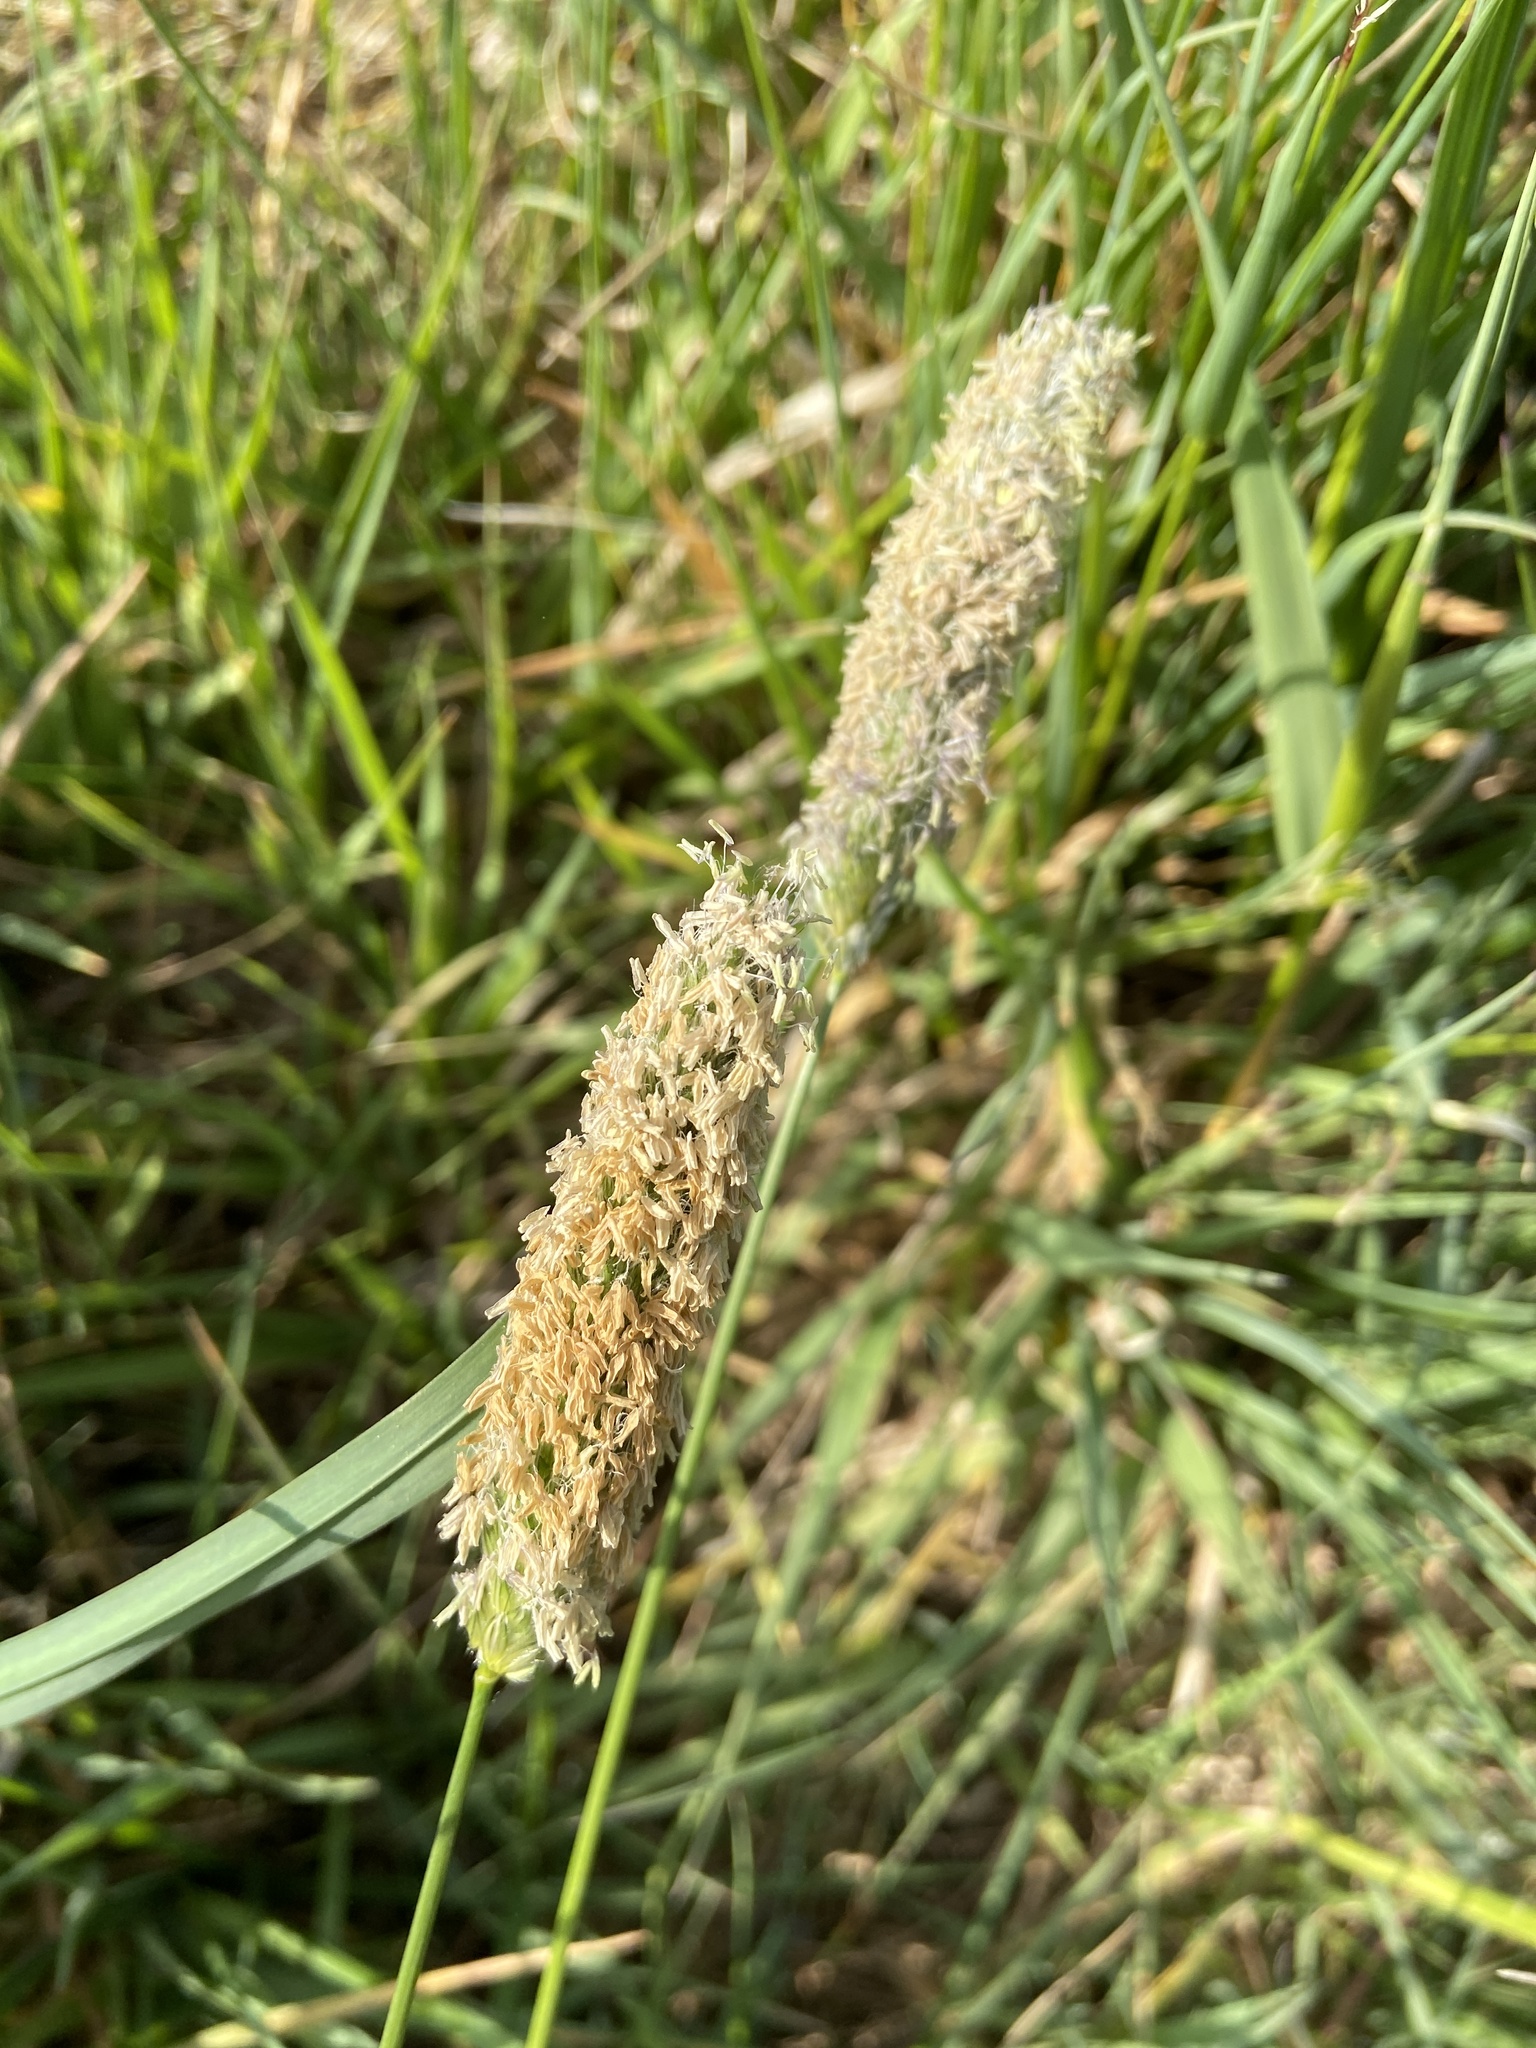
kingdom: Plantae
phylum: Tracheophyta
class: Liliopsida
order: Poales
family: Poaceae
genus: Alopecurus
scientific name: Alopecurus pratensis
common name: Meadow foxtail
